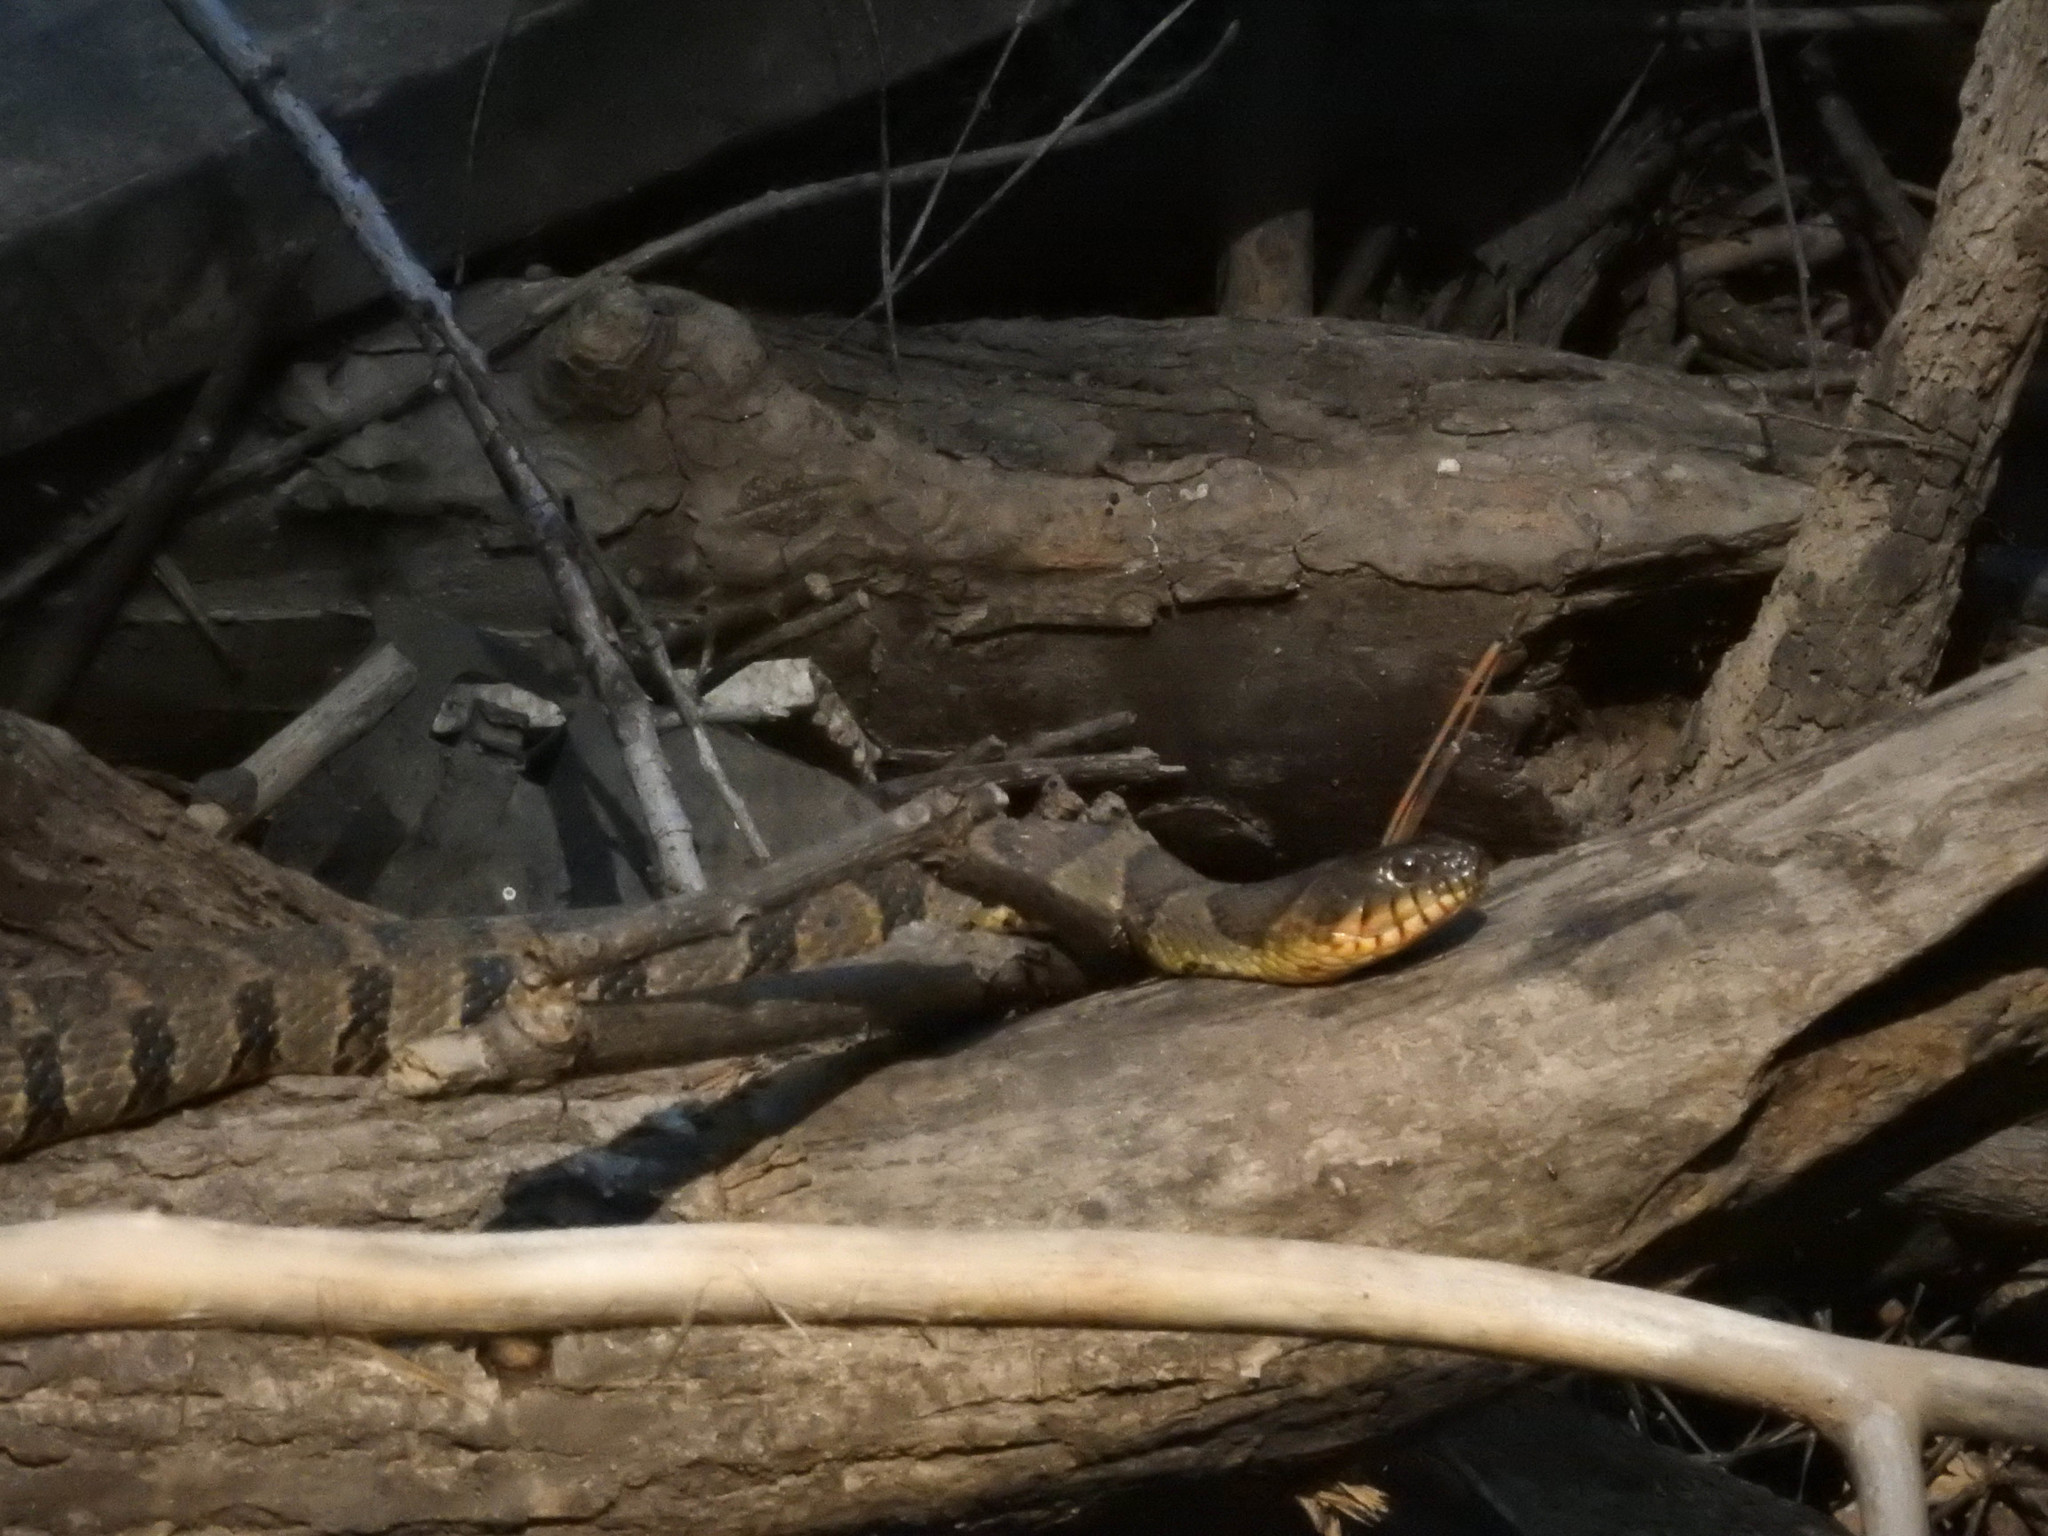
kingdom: Animalia
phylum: Chordata
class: Squamata
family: Colubridae
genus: Nerodia
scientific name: Nerodia sipedon
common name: Northern water snake
